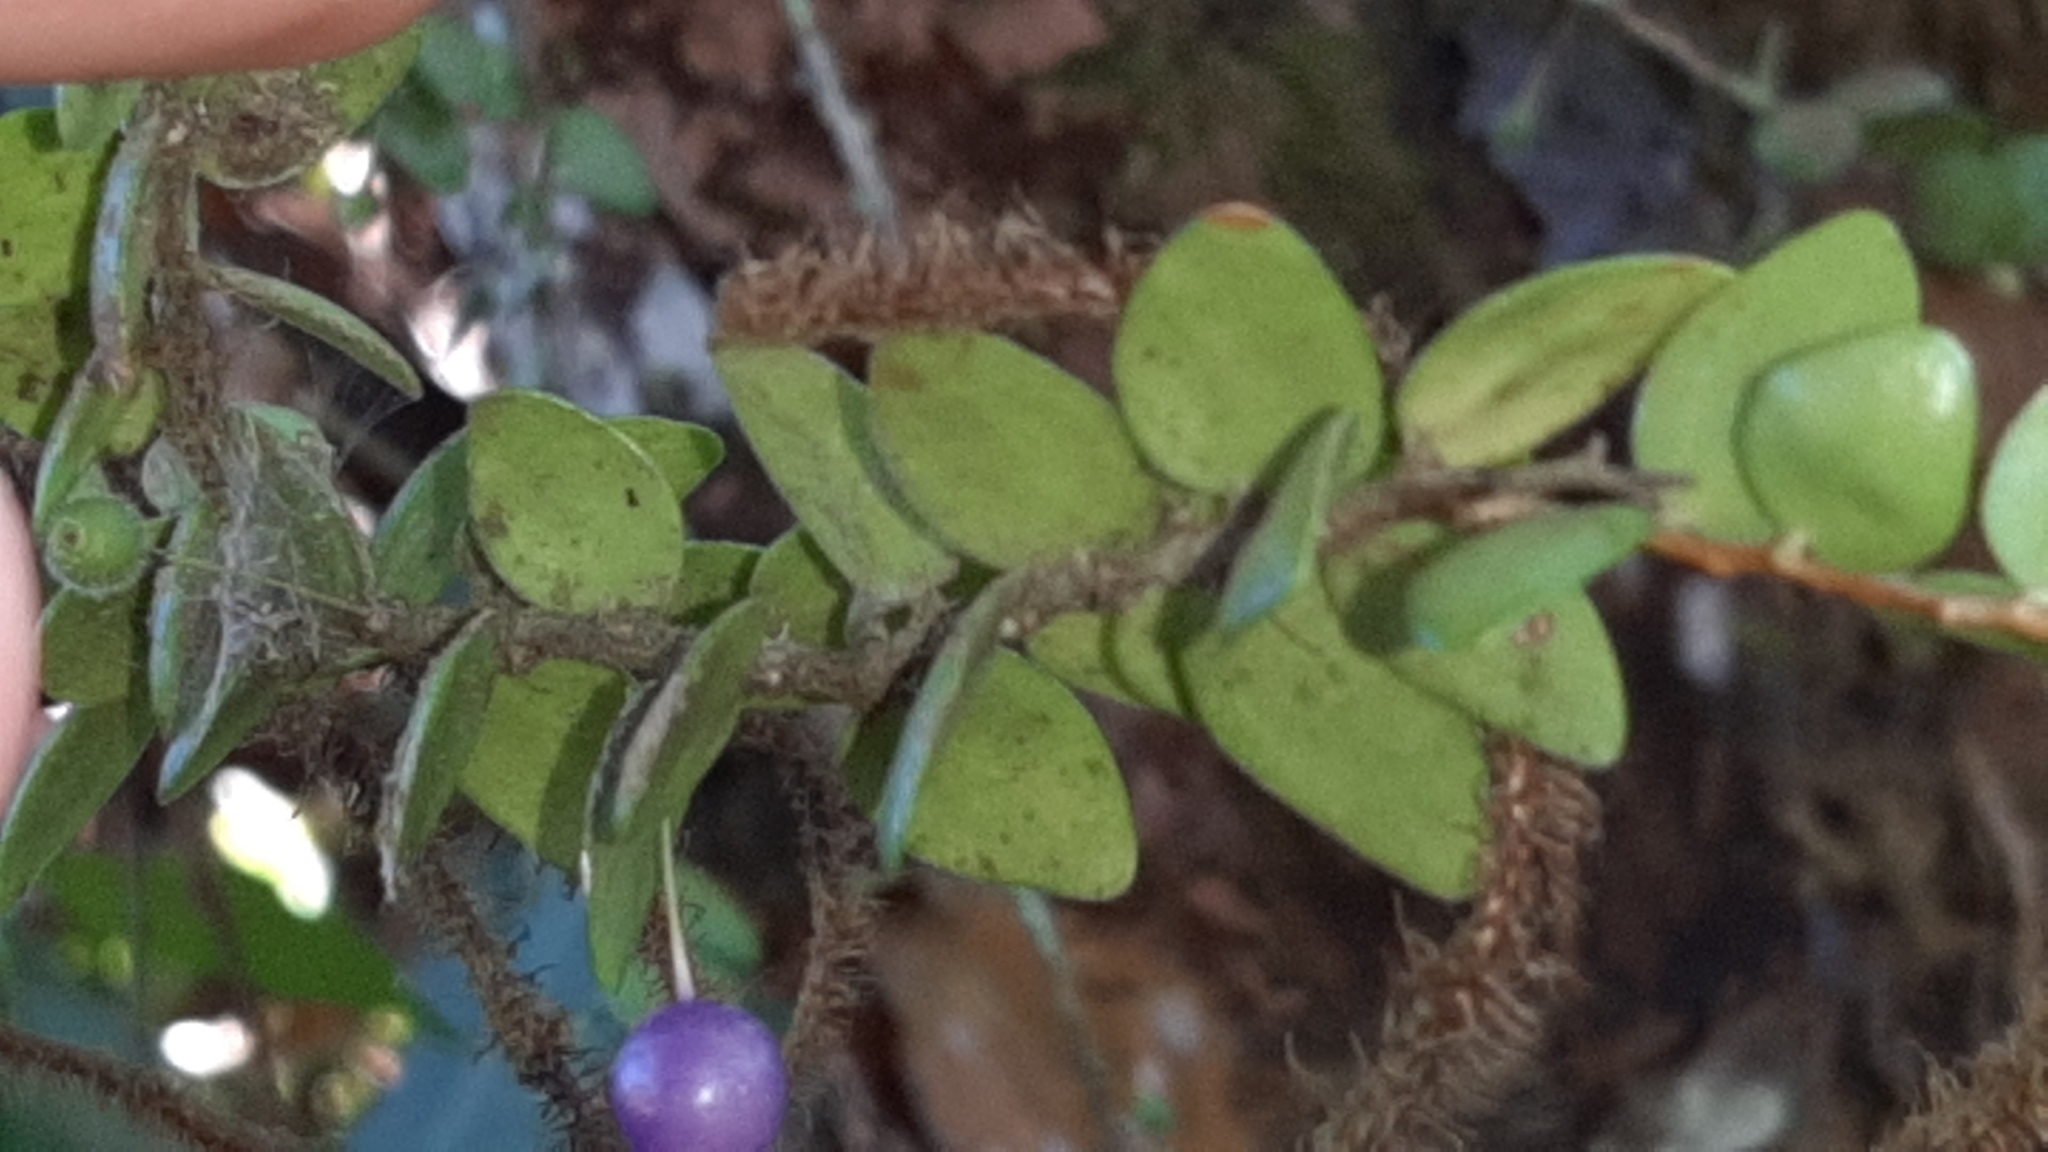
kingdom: Plantae
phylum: Tracheophyta
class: Magnoliopsida
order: Ericales
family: Ericaceae
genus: Sphyrospermum
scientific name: Sphyrospermum buxifolium
